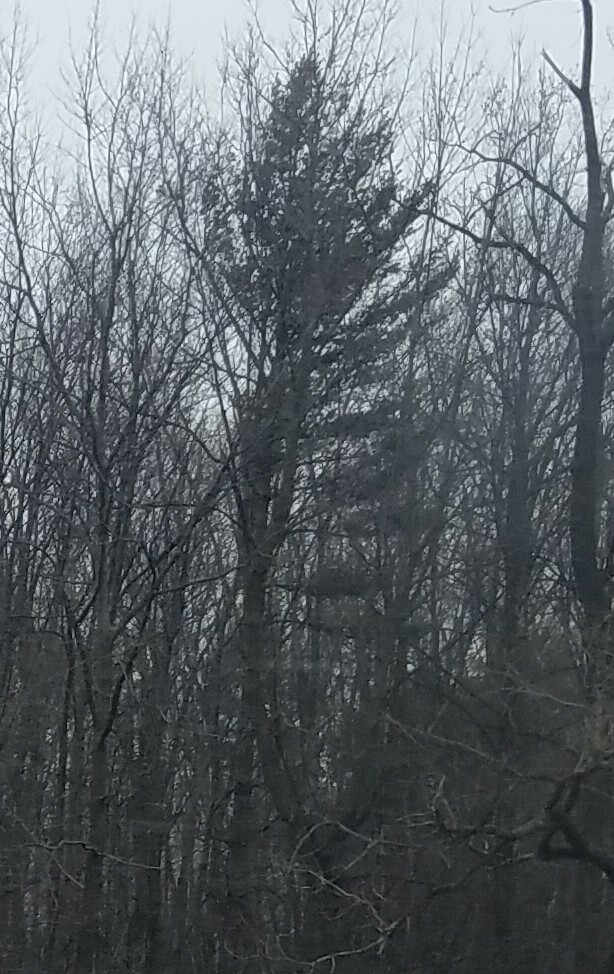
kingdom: Plantae
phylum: Tracheophyta
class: Pinopsida
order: Pinales
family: Pinaceae
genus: Pinus
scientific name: Pinus strobus
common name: Weymouth pine
